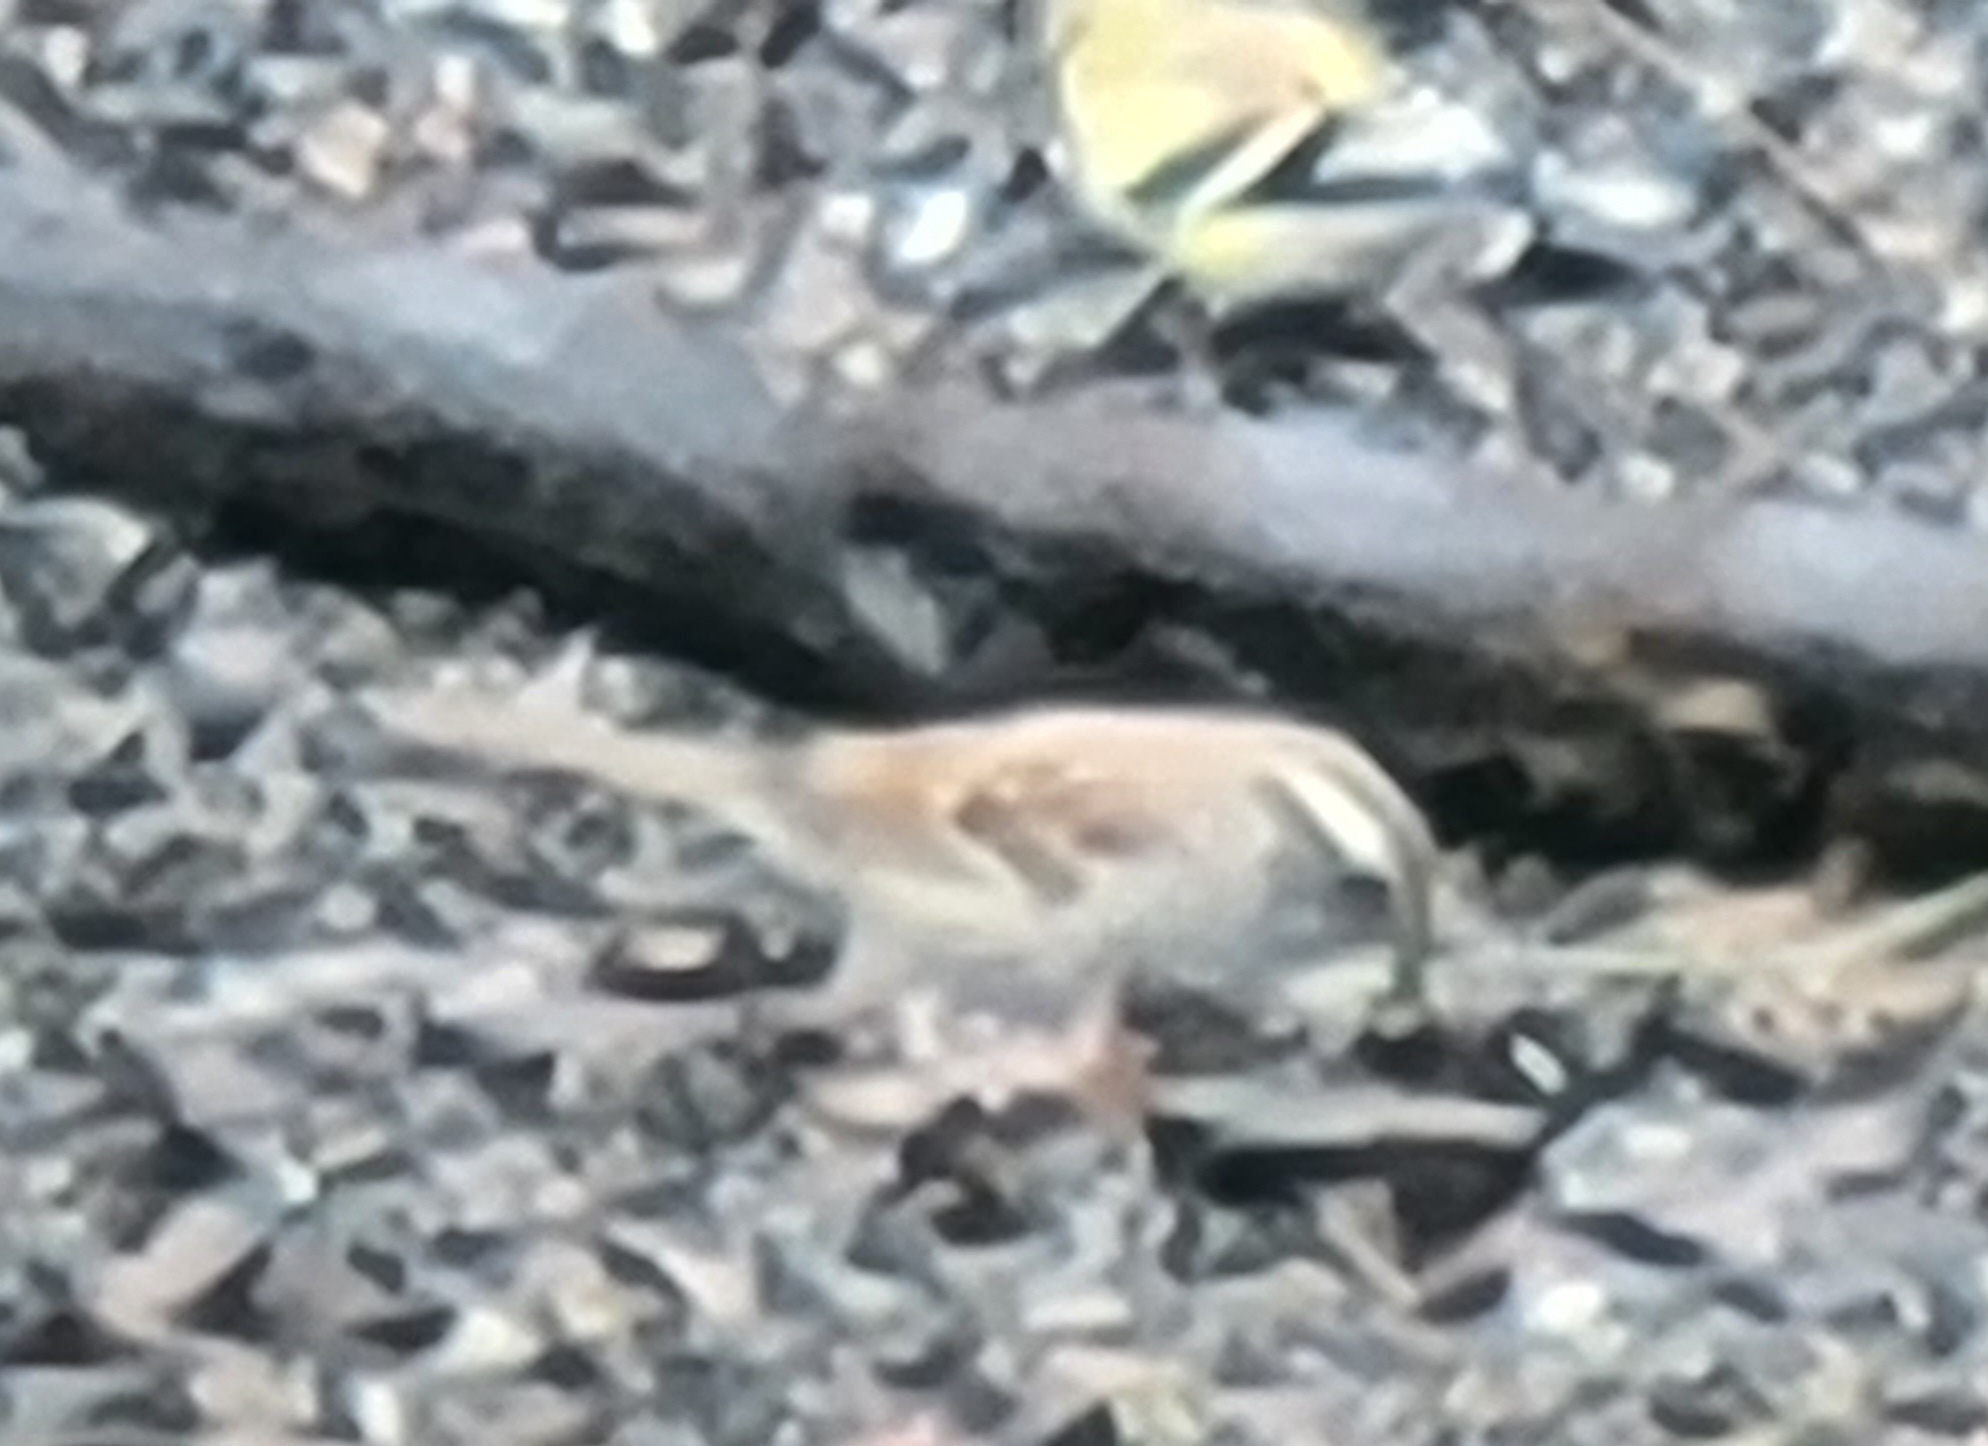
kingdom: Animalia
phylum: Chordata
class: Aves
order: Passeriformes
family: Passerellidae
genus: Zonotrichia
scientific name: Zonotrichia albicollis
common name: White-throated sparrow
